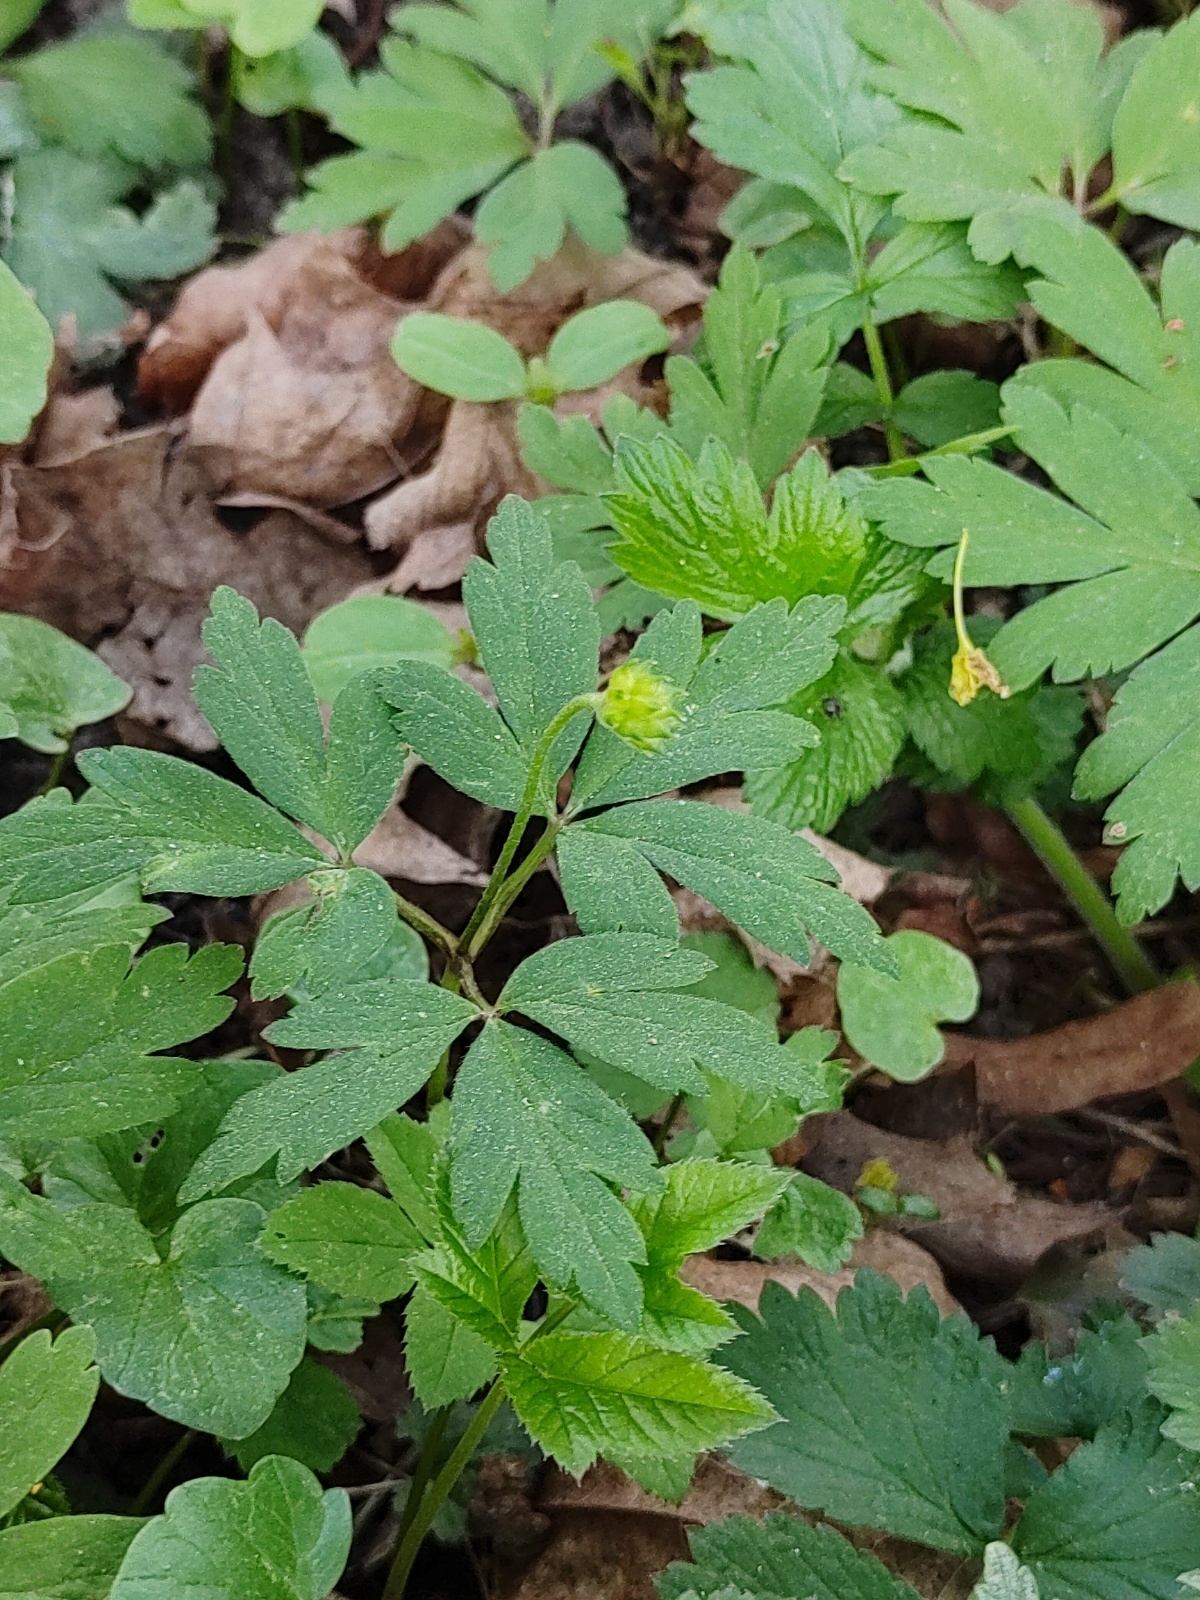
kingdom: Plantae
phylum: Tracheophyta
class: Magnoliopsida
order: Ranunculales
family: Ranunculaceae
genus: Anemone
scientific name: Anemone nemorosa
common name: Wood anemone
